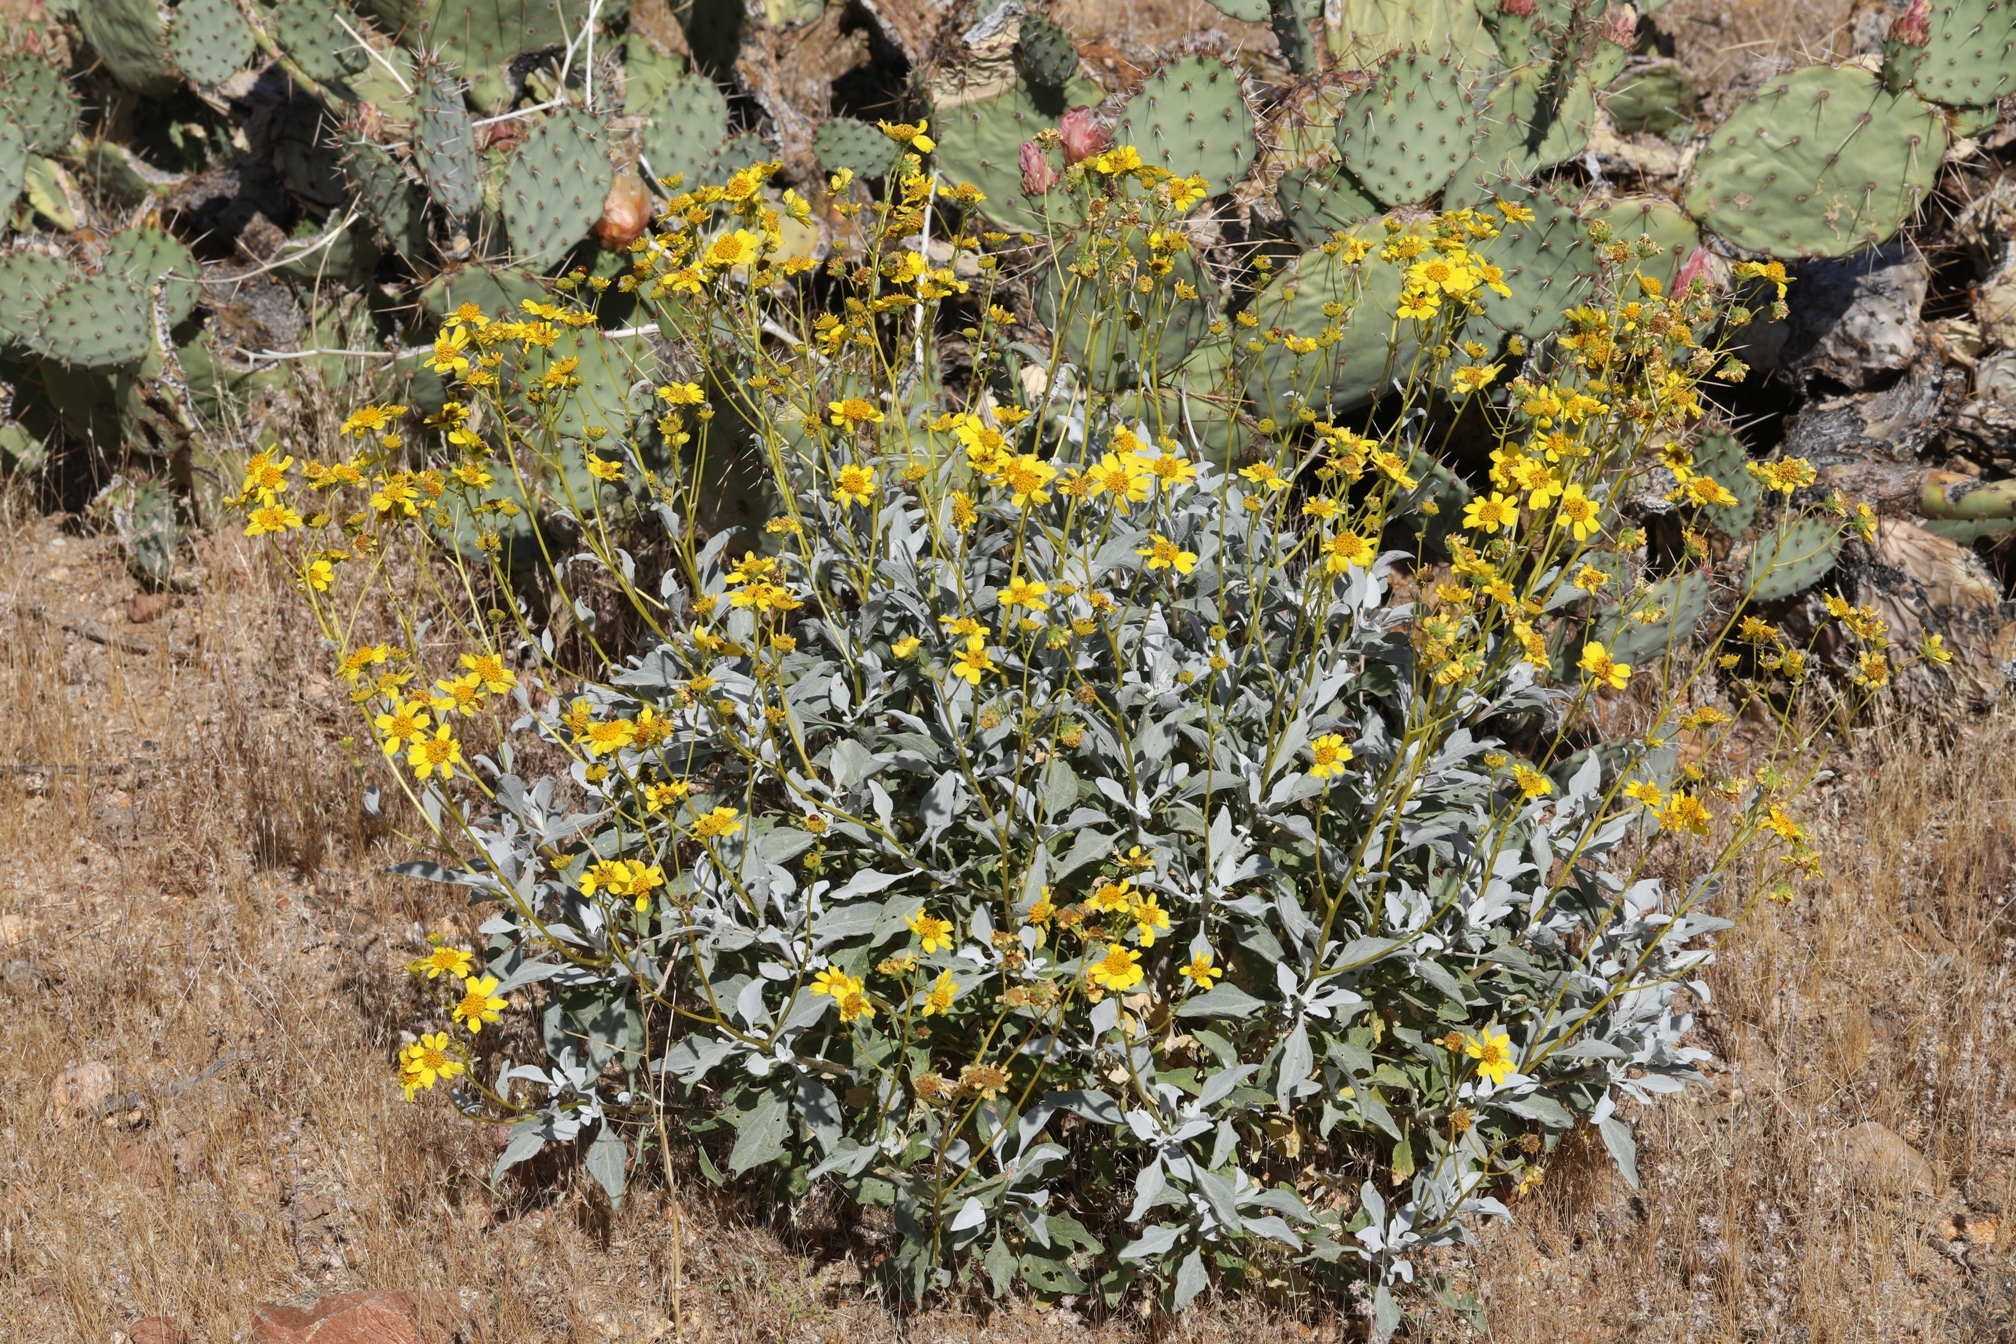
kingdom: Plantae
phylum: Tracheophyta
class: Magnoliopsida
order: Asterales
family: Asteraceae
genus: Encelia
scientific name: Encelia farinosa
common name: Brittlebush
